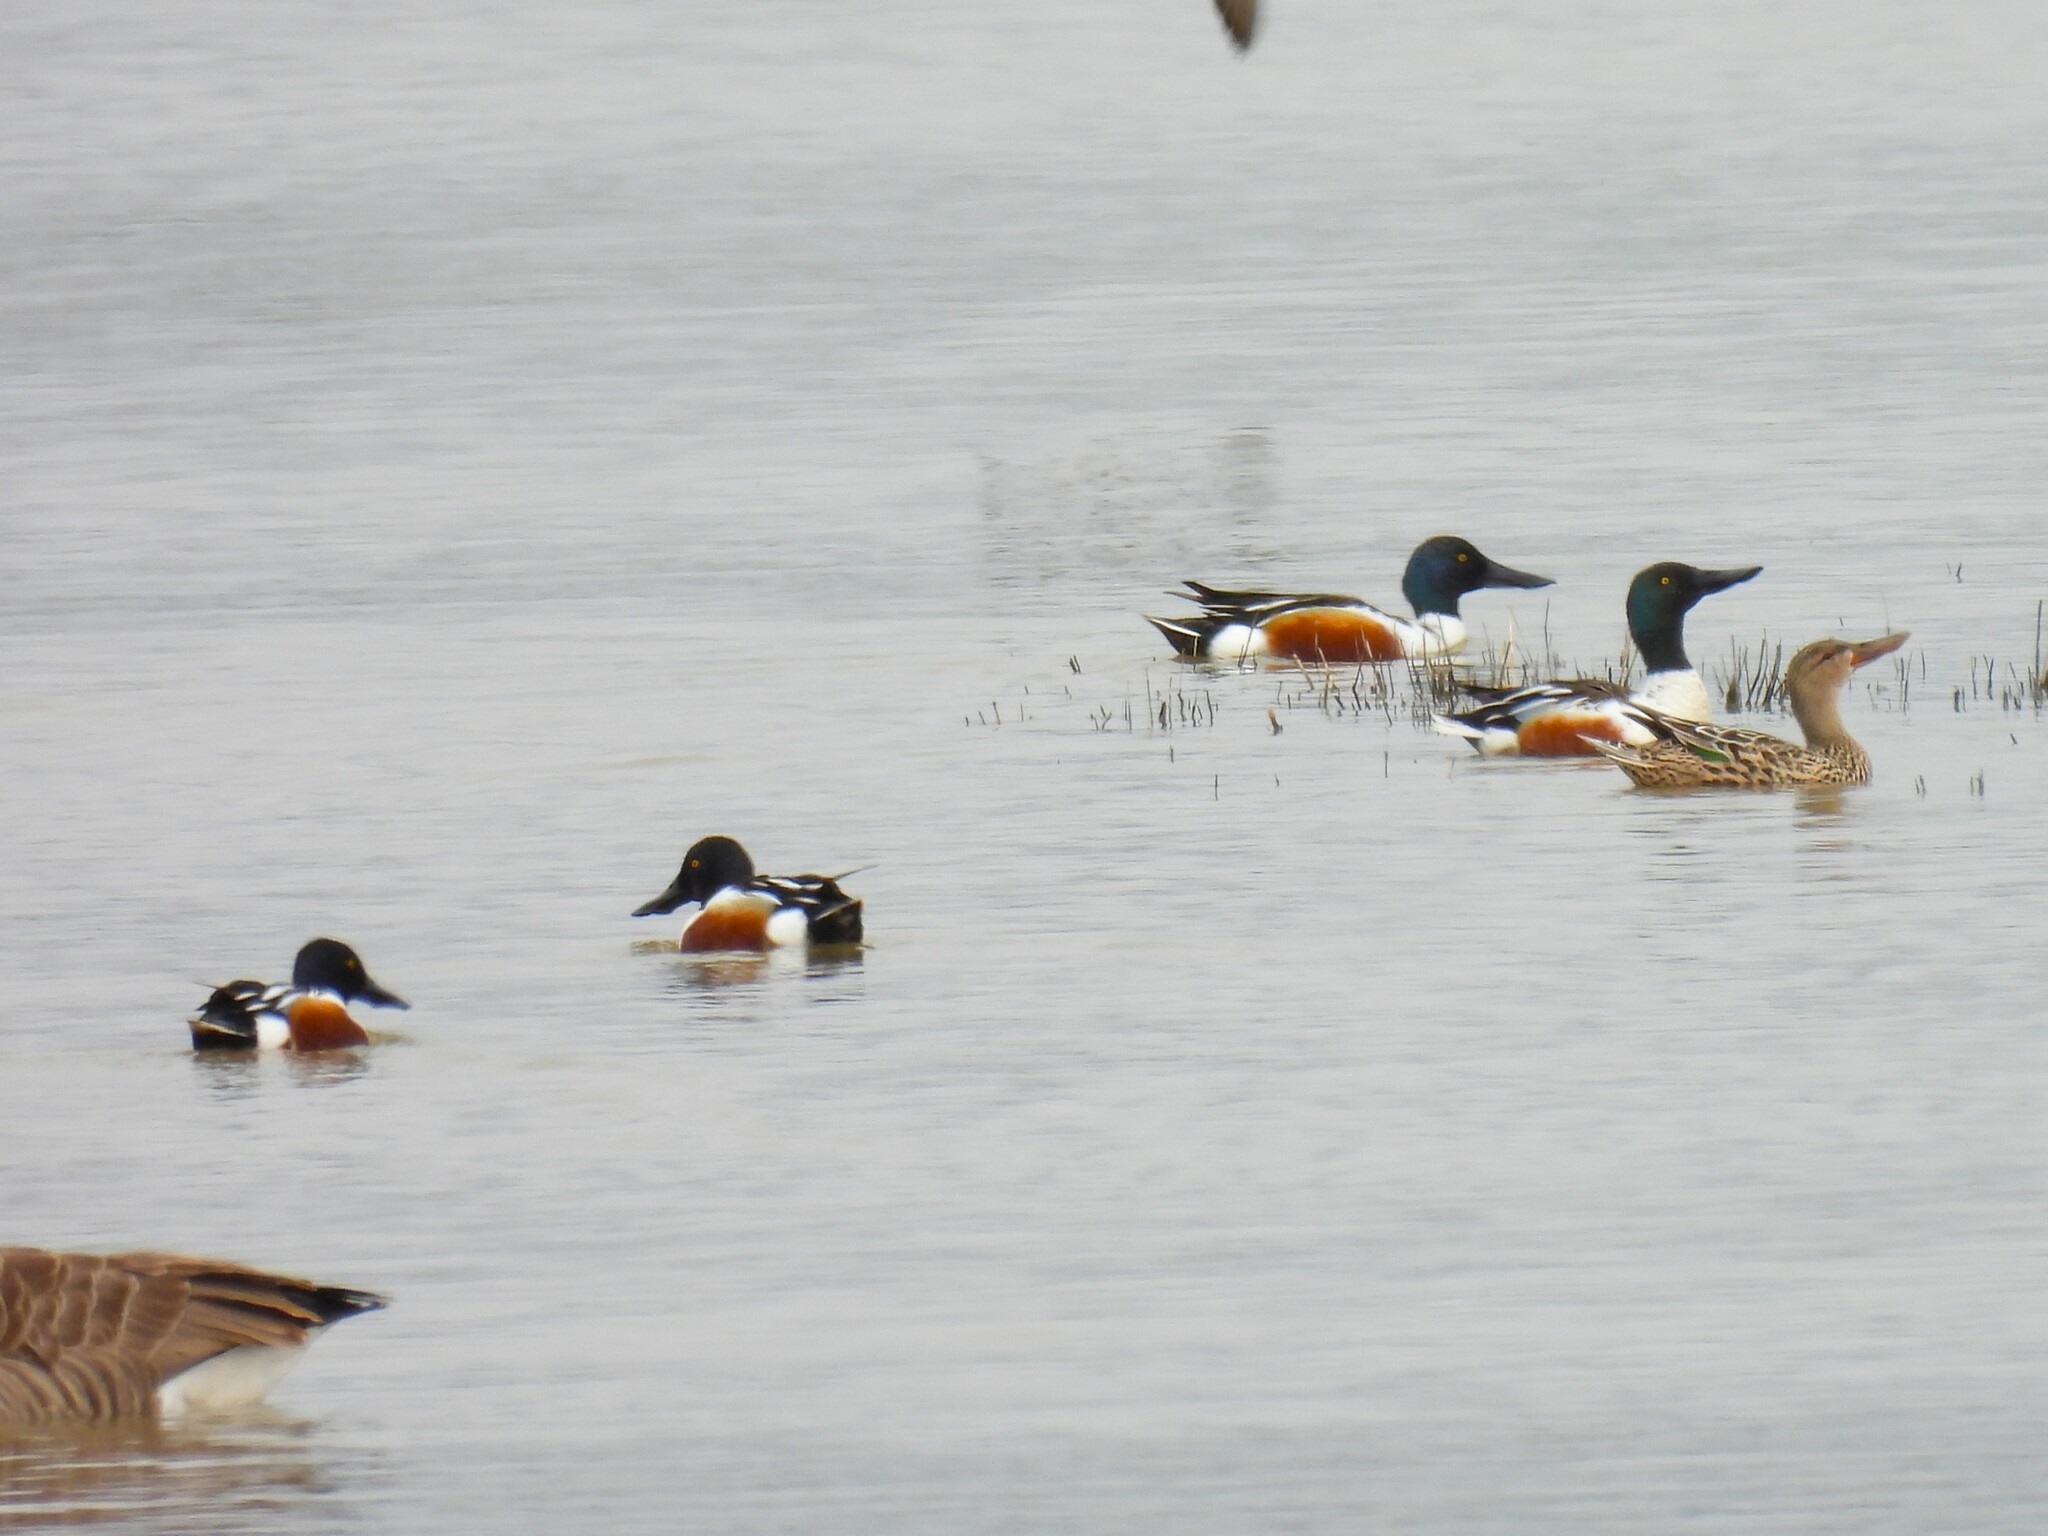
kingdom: Animalia
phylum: Chordata
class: Aves
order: Anseriformes
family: Anatidae
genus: Spatula
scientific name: Spatula clypeata
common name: Northern shoveler
